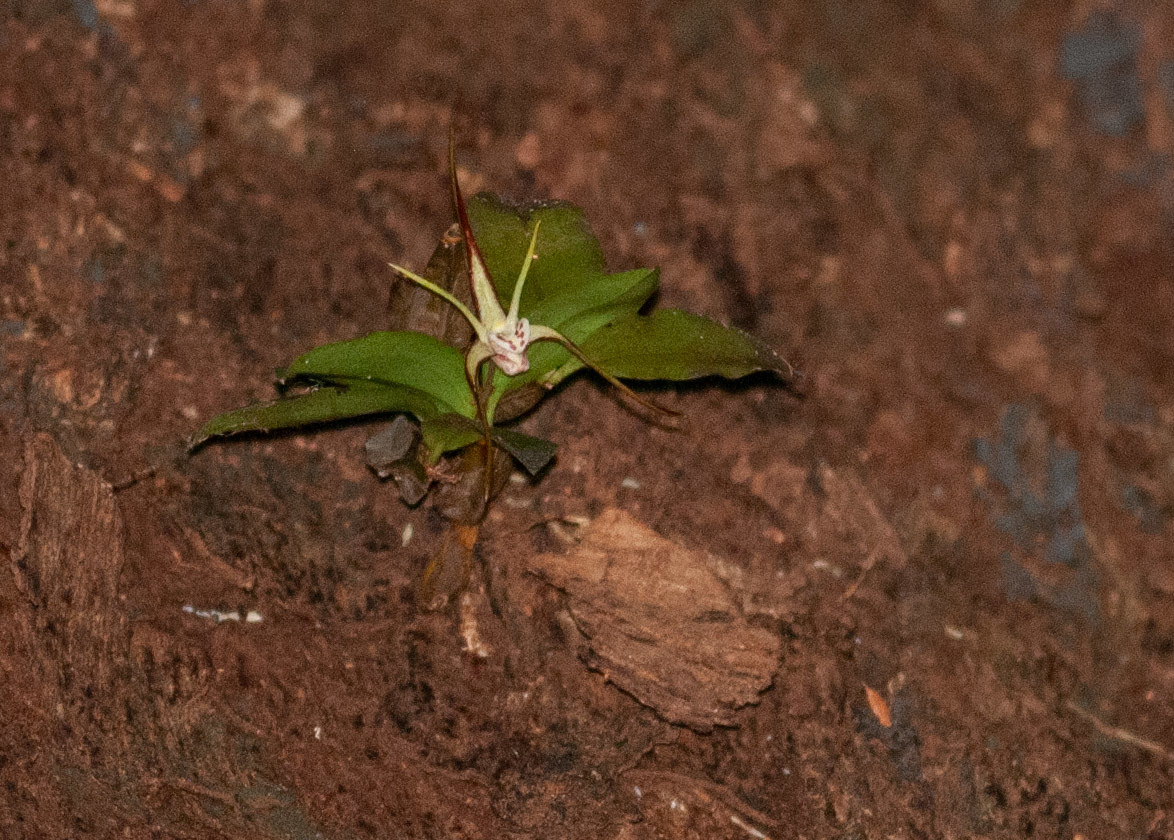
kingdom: Plantae
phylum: Tracheophyta
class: Liliopsida
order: Asparagales
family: Orchidaceae
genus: Dendrobium
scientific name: Dendrobium tetragonum
